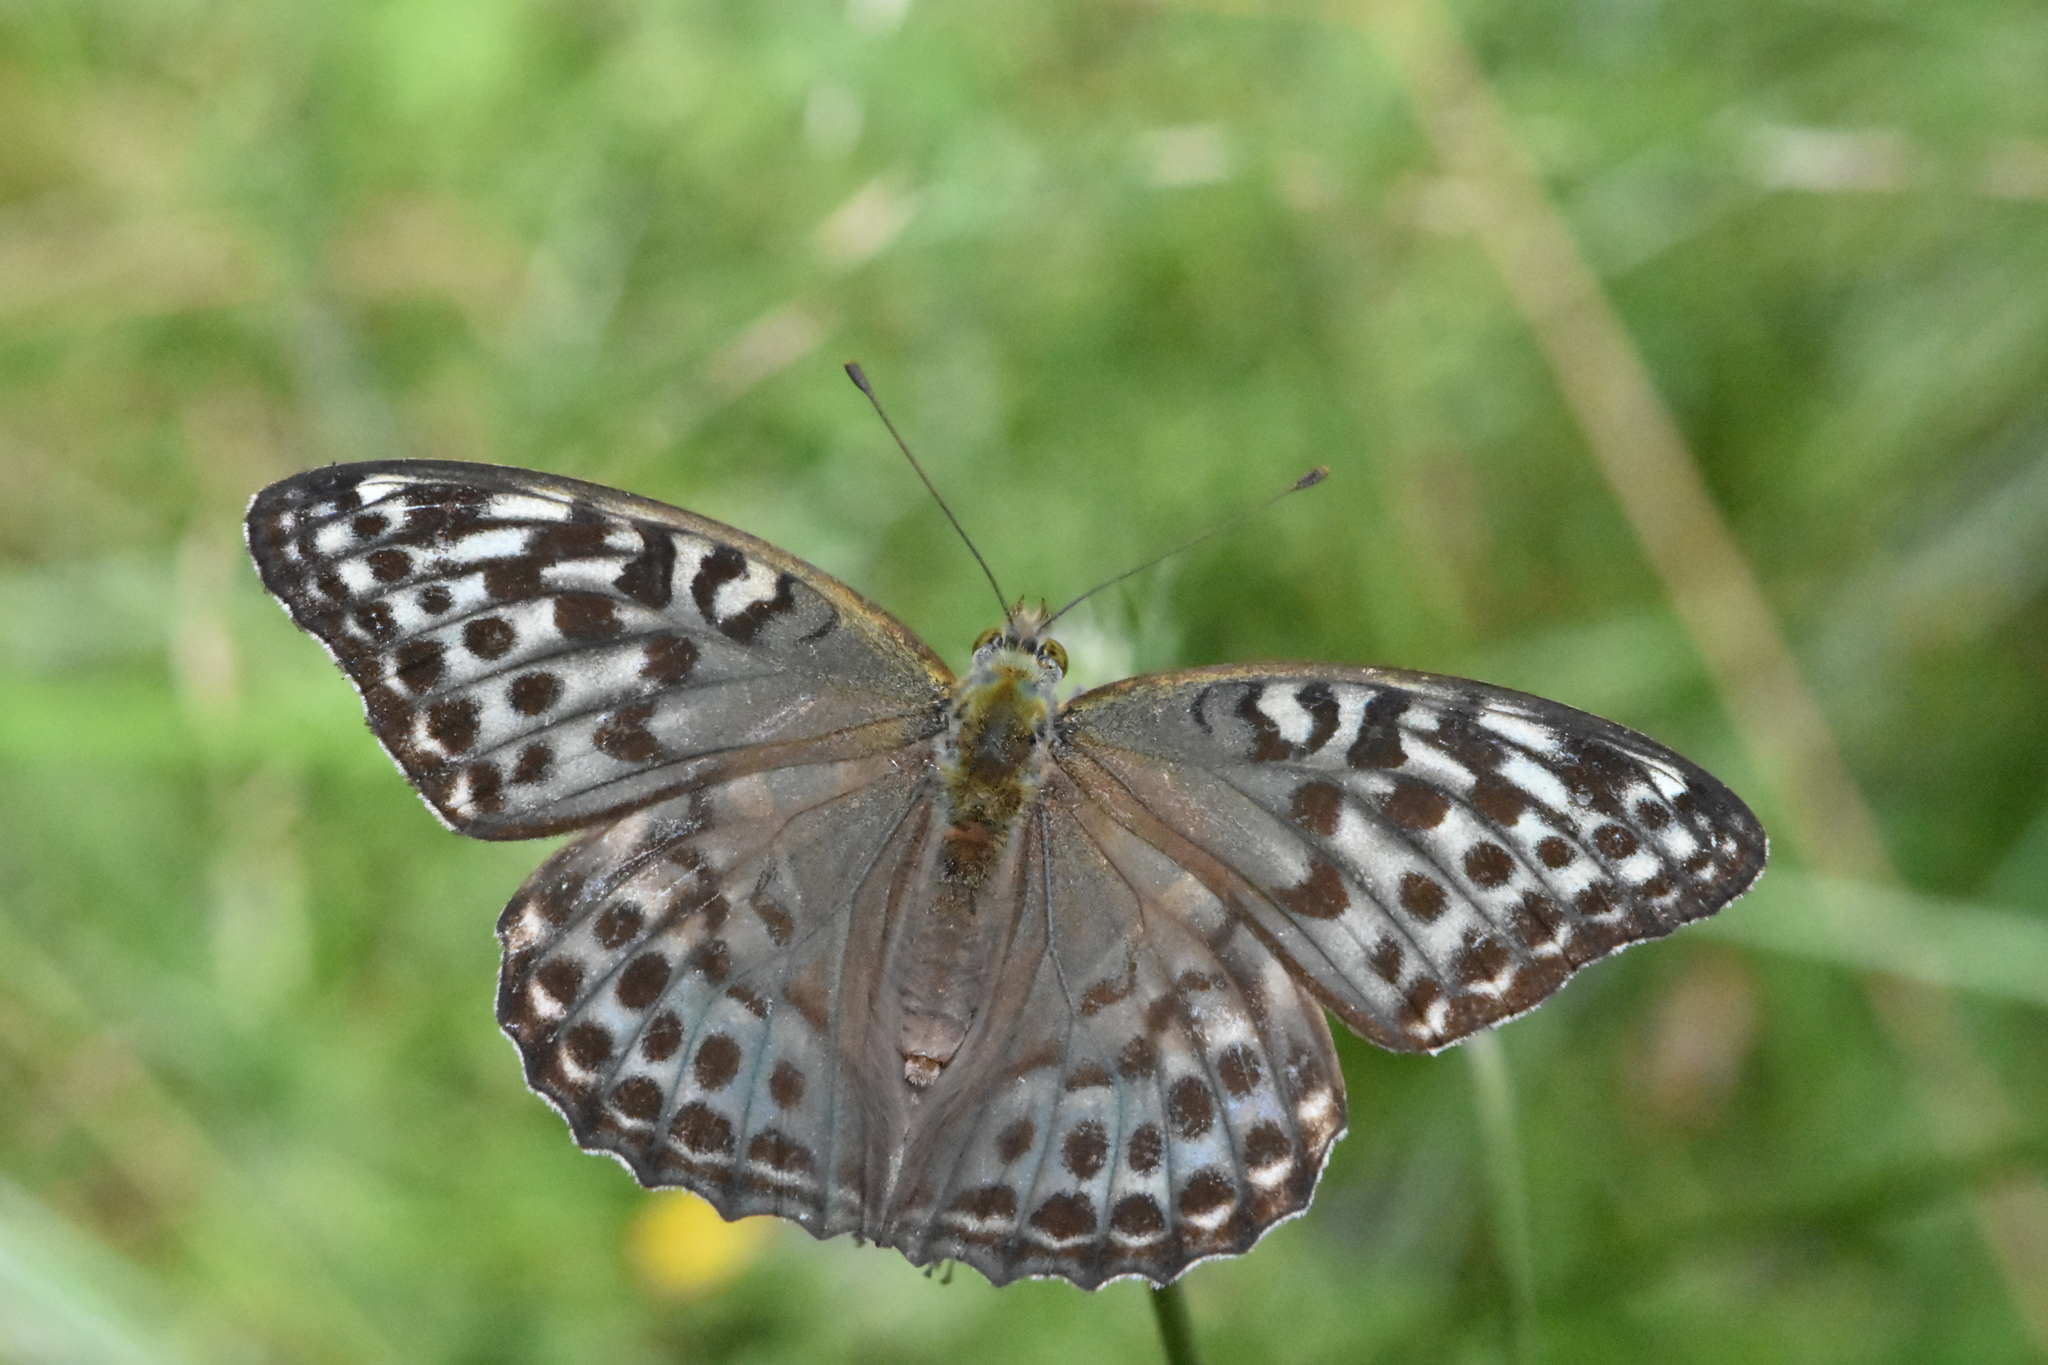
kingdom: Animalia
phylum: Arthropoda
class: Insecta
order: Lepidoptera
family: Nymphalidae
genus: Argynnis
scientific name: Argynnis paphia
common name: Silver-washed fritillary
